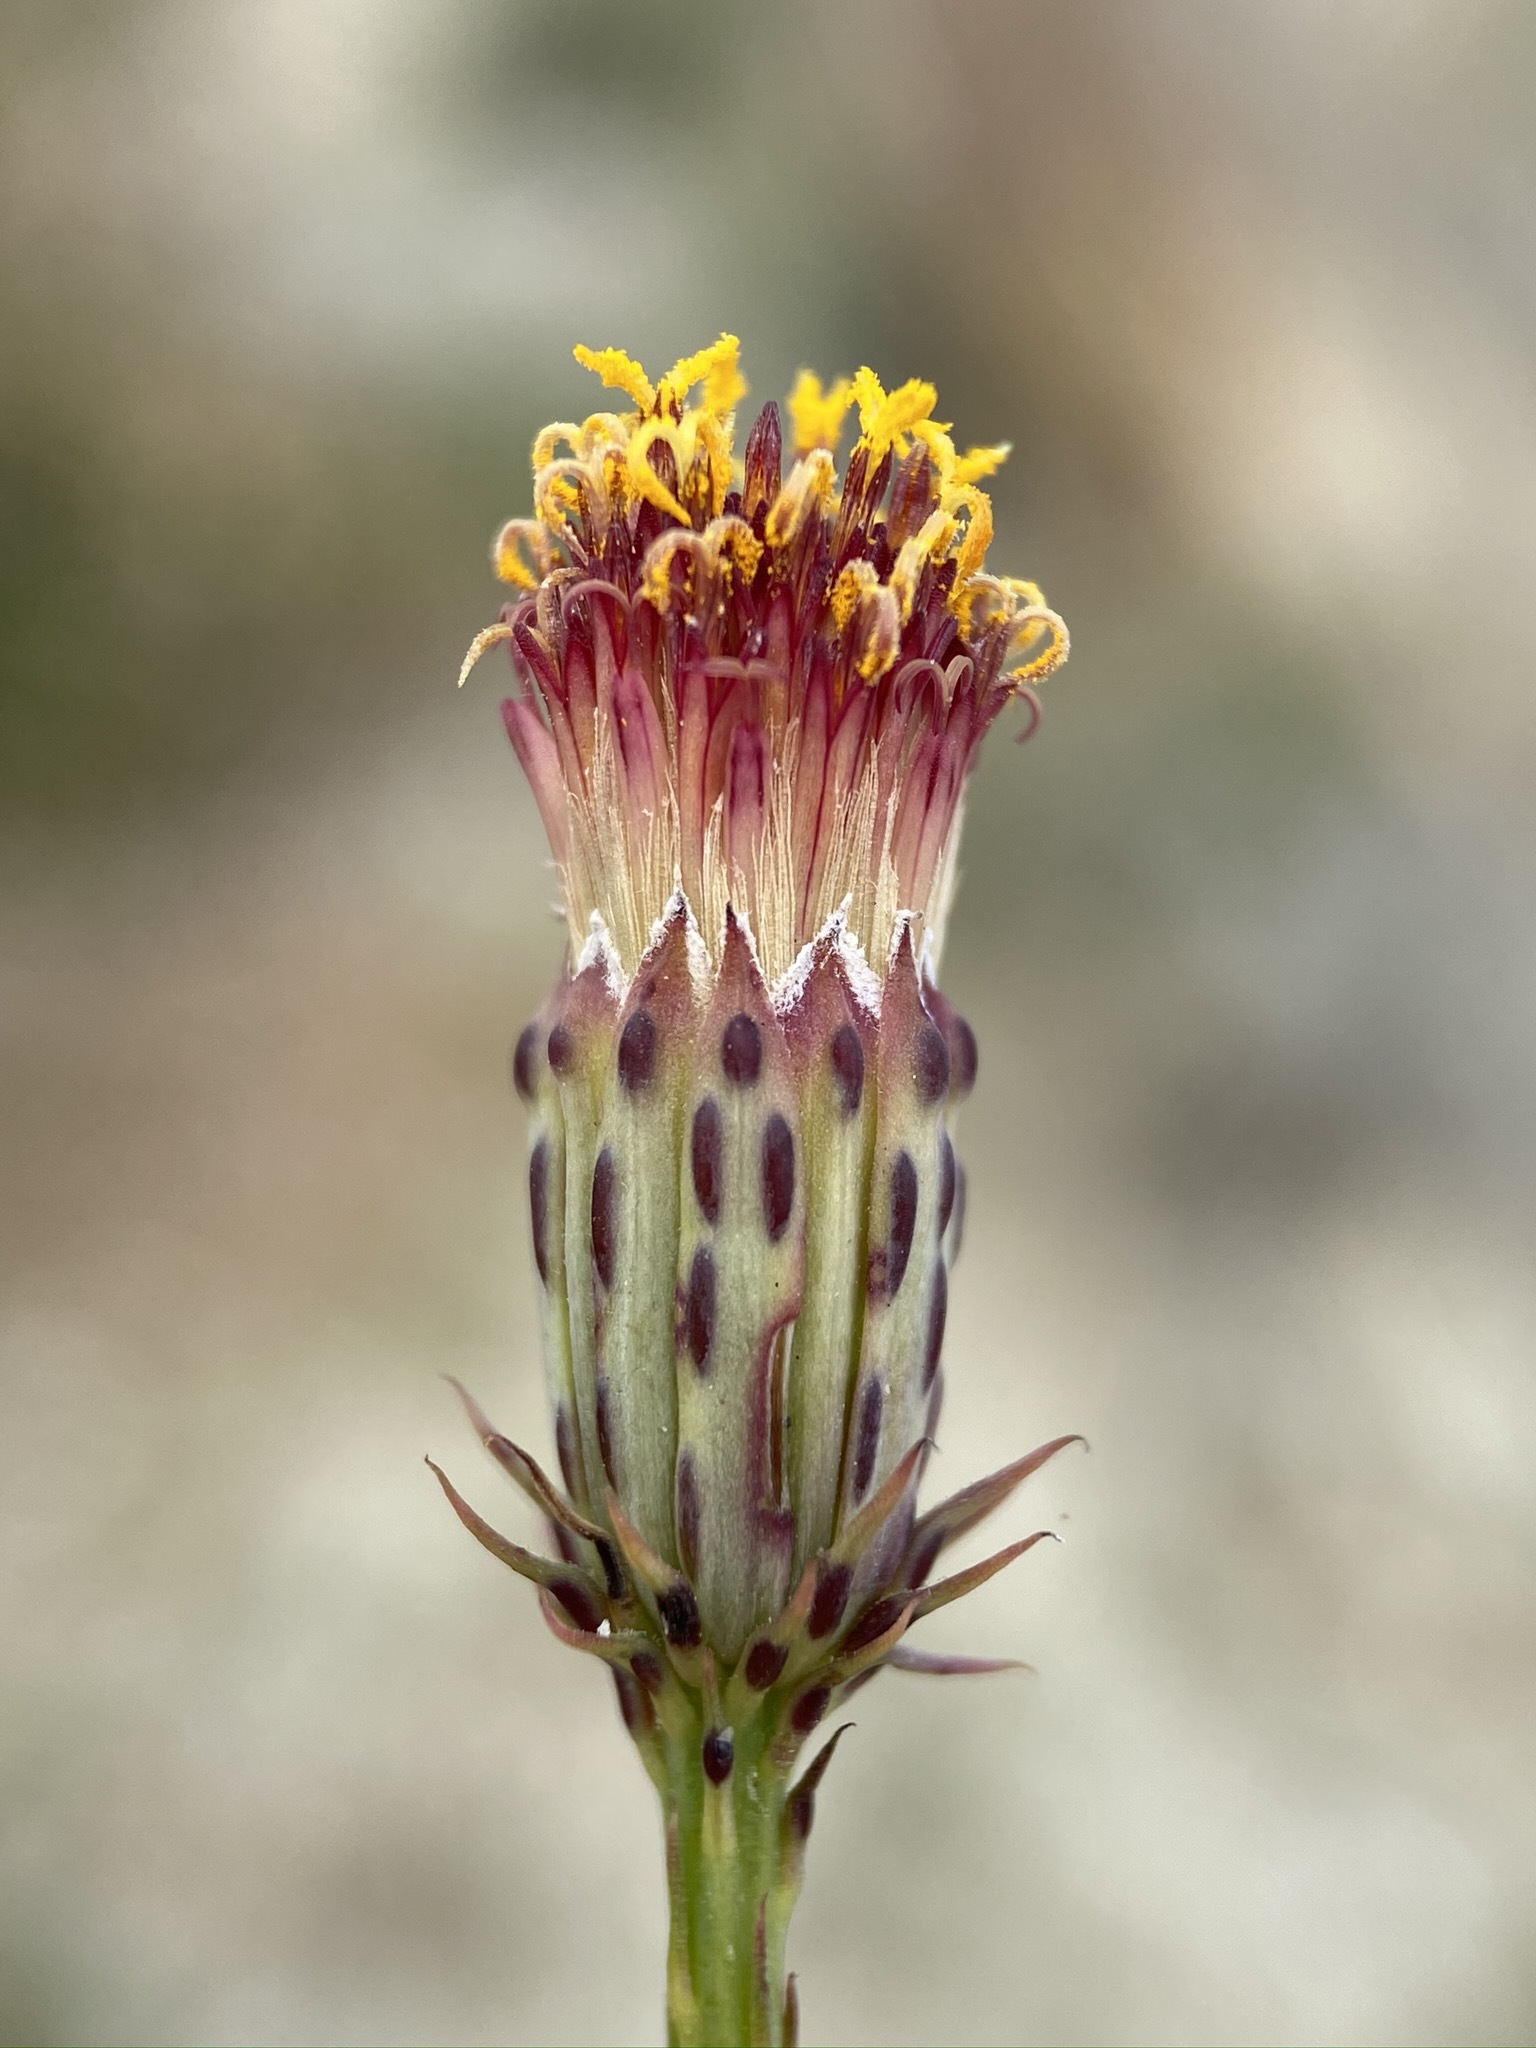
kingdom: Plantae
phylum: Tracheophyta
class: Magnoliopsida
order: Asterales
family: Asteraceae
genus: Adenophyllum
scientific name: Adenophyllum porophylloides
